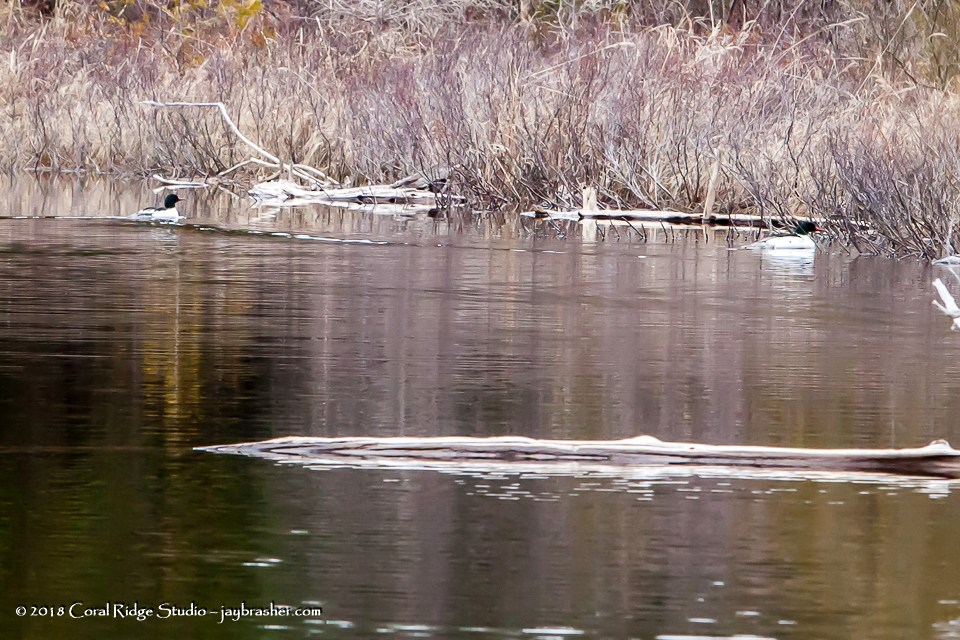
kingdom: Animalia
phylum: Chordata
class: Aves
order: Anseriformes
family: Anatidae
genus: Mergus
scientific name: Mergus merganser
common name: Common merganser
